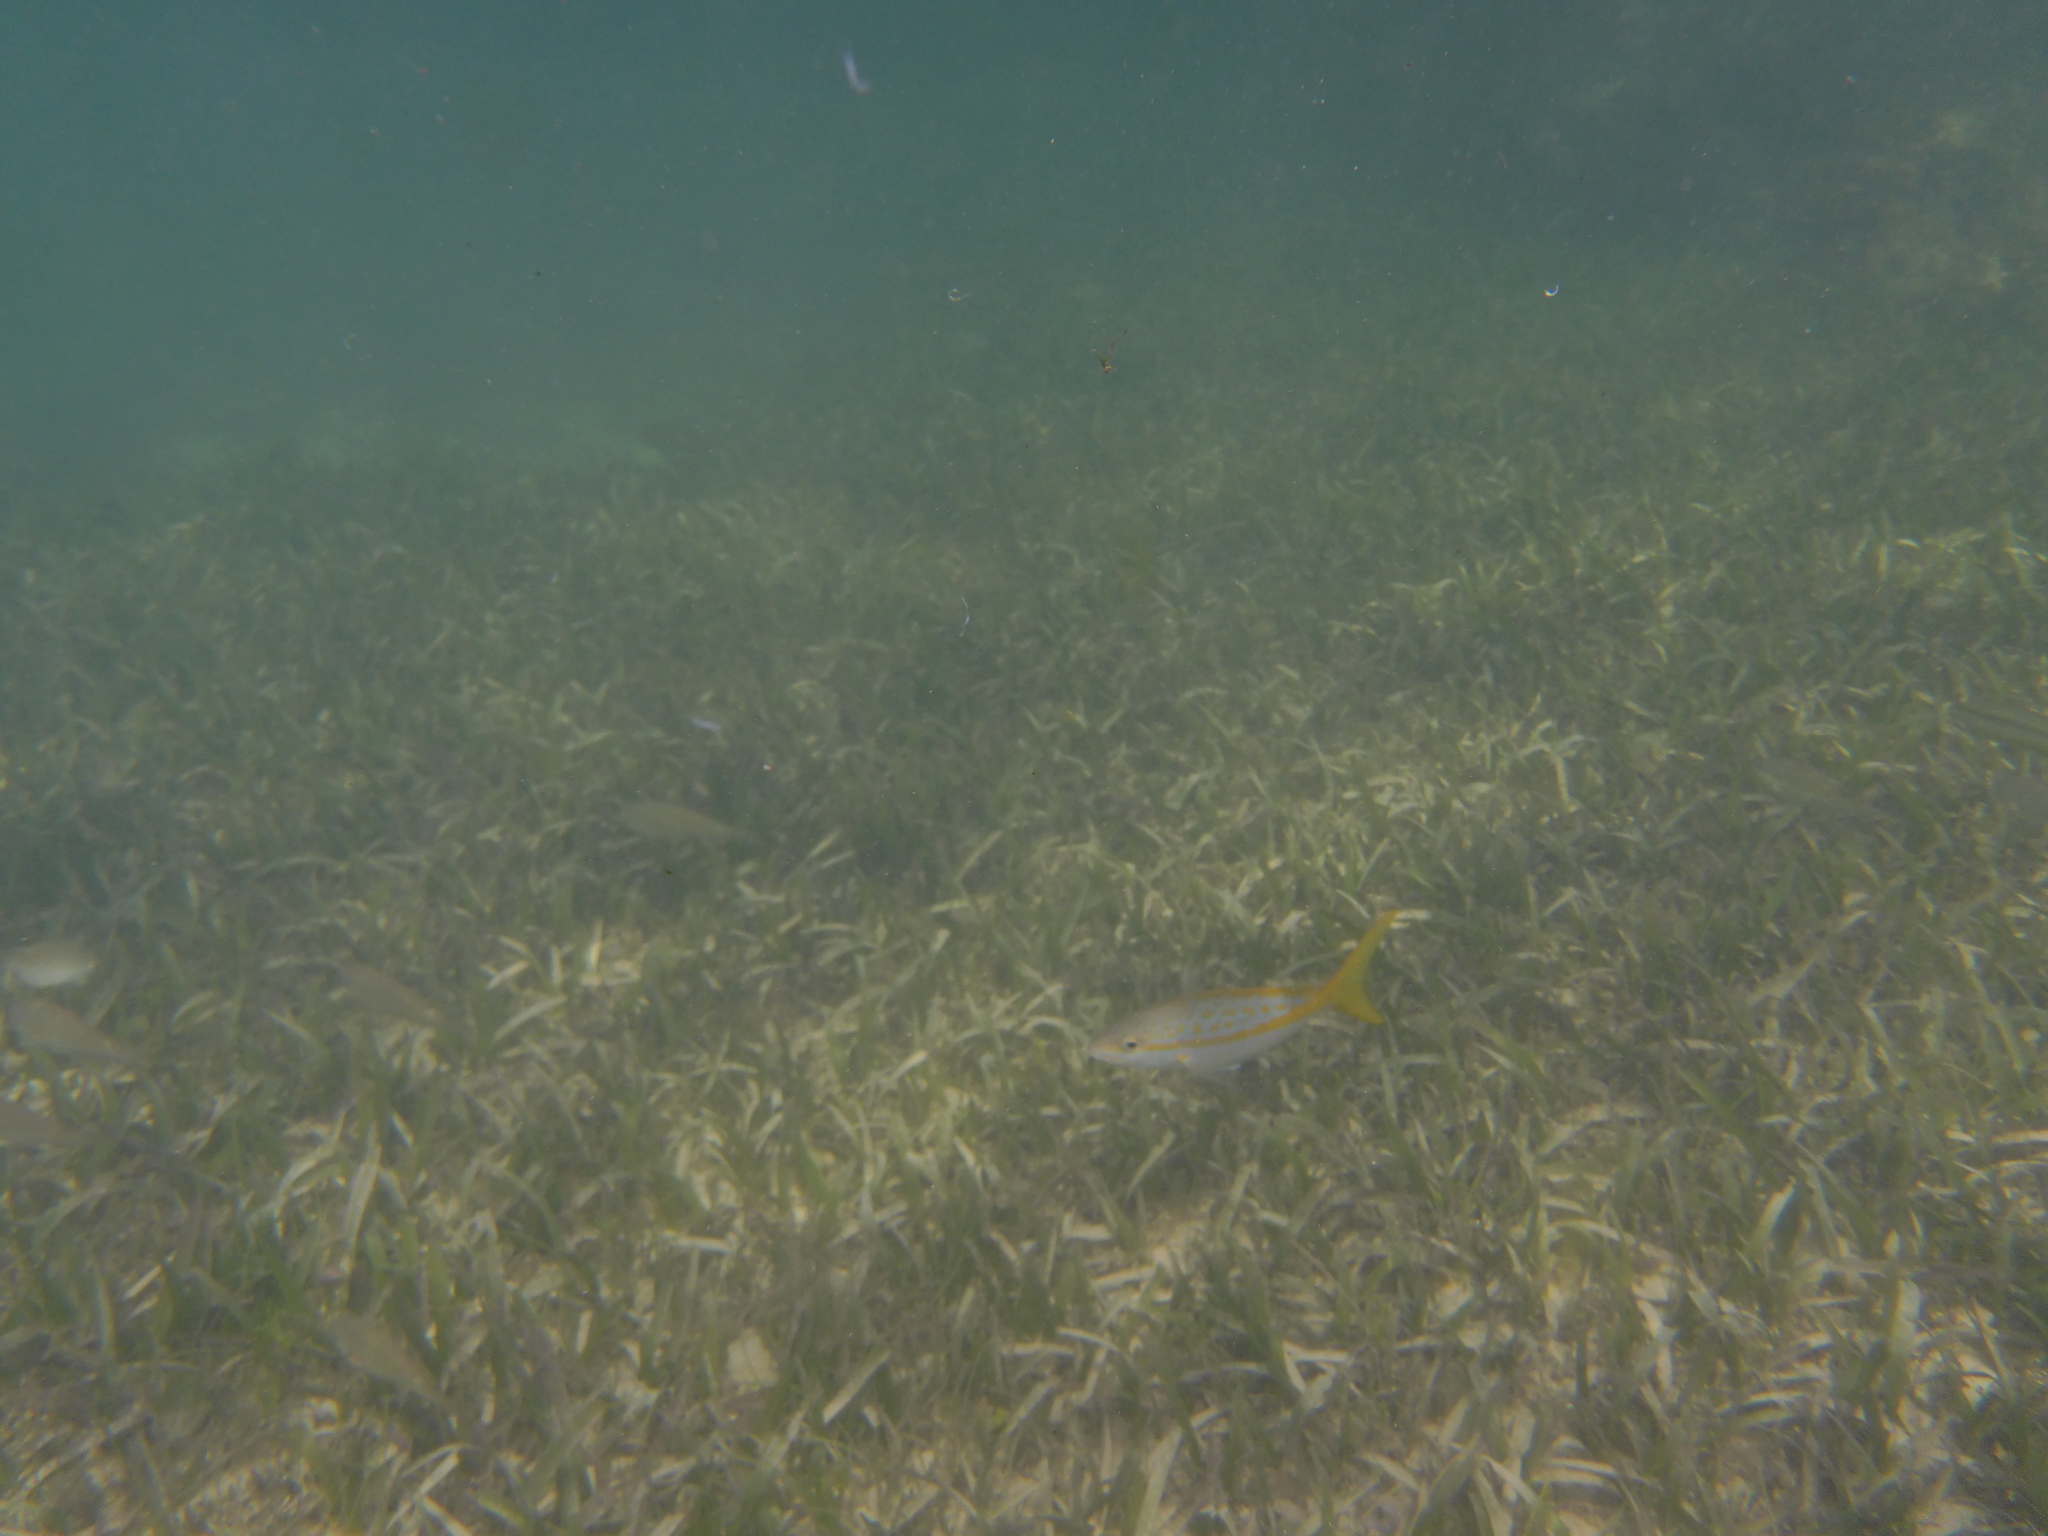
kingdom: Animalia
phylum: Chordata
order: Perciformes
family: Lutjanidae
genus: Ocyurus
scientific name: Ocyurus chrysurus
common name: Yellowtail snapper
